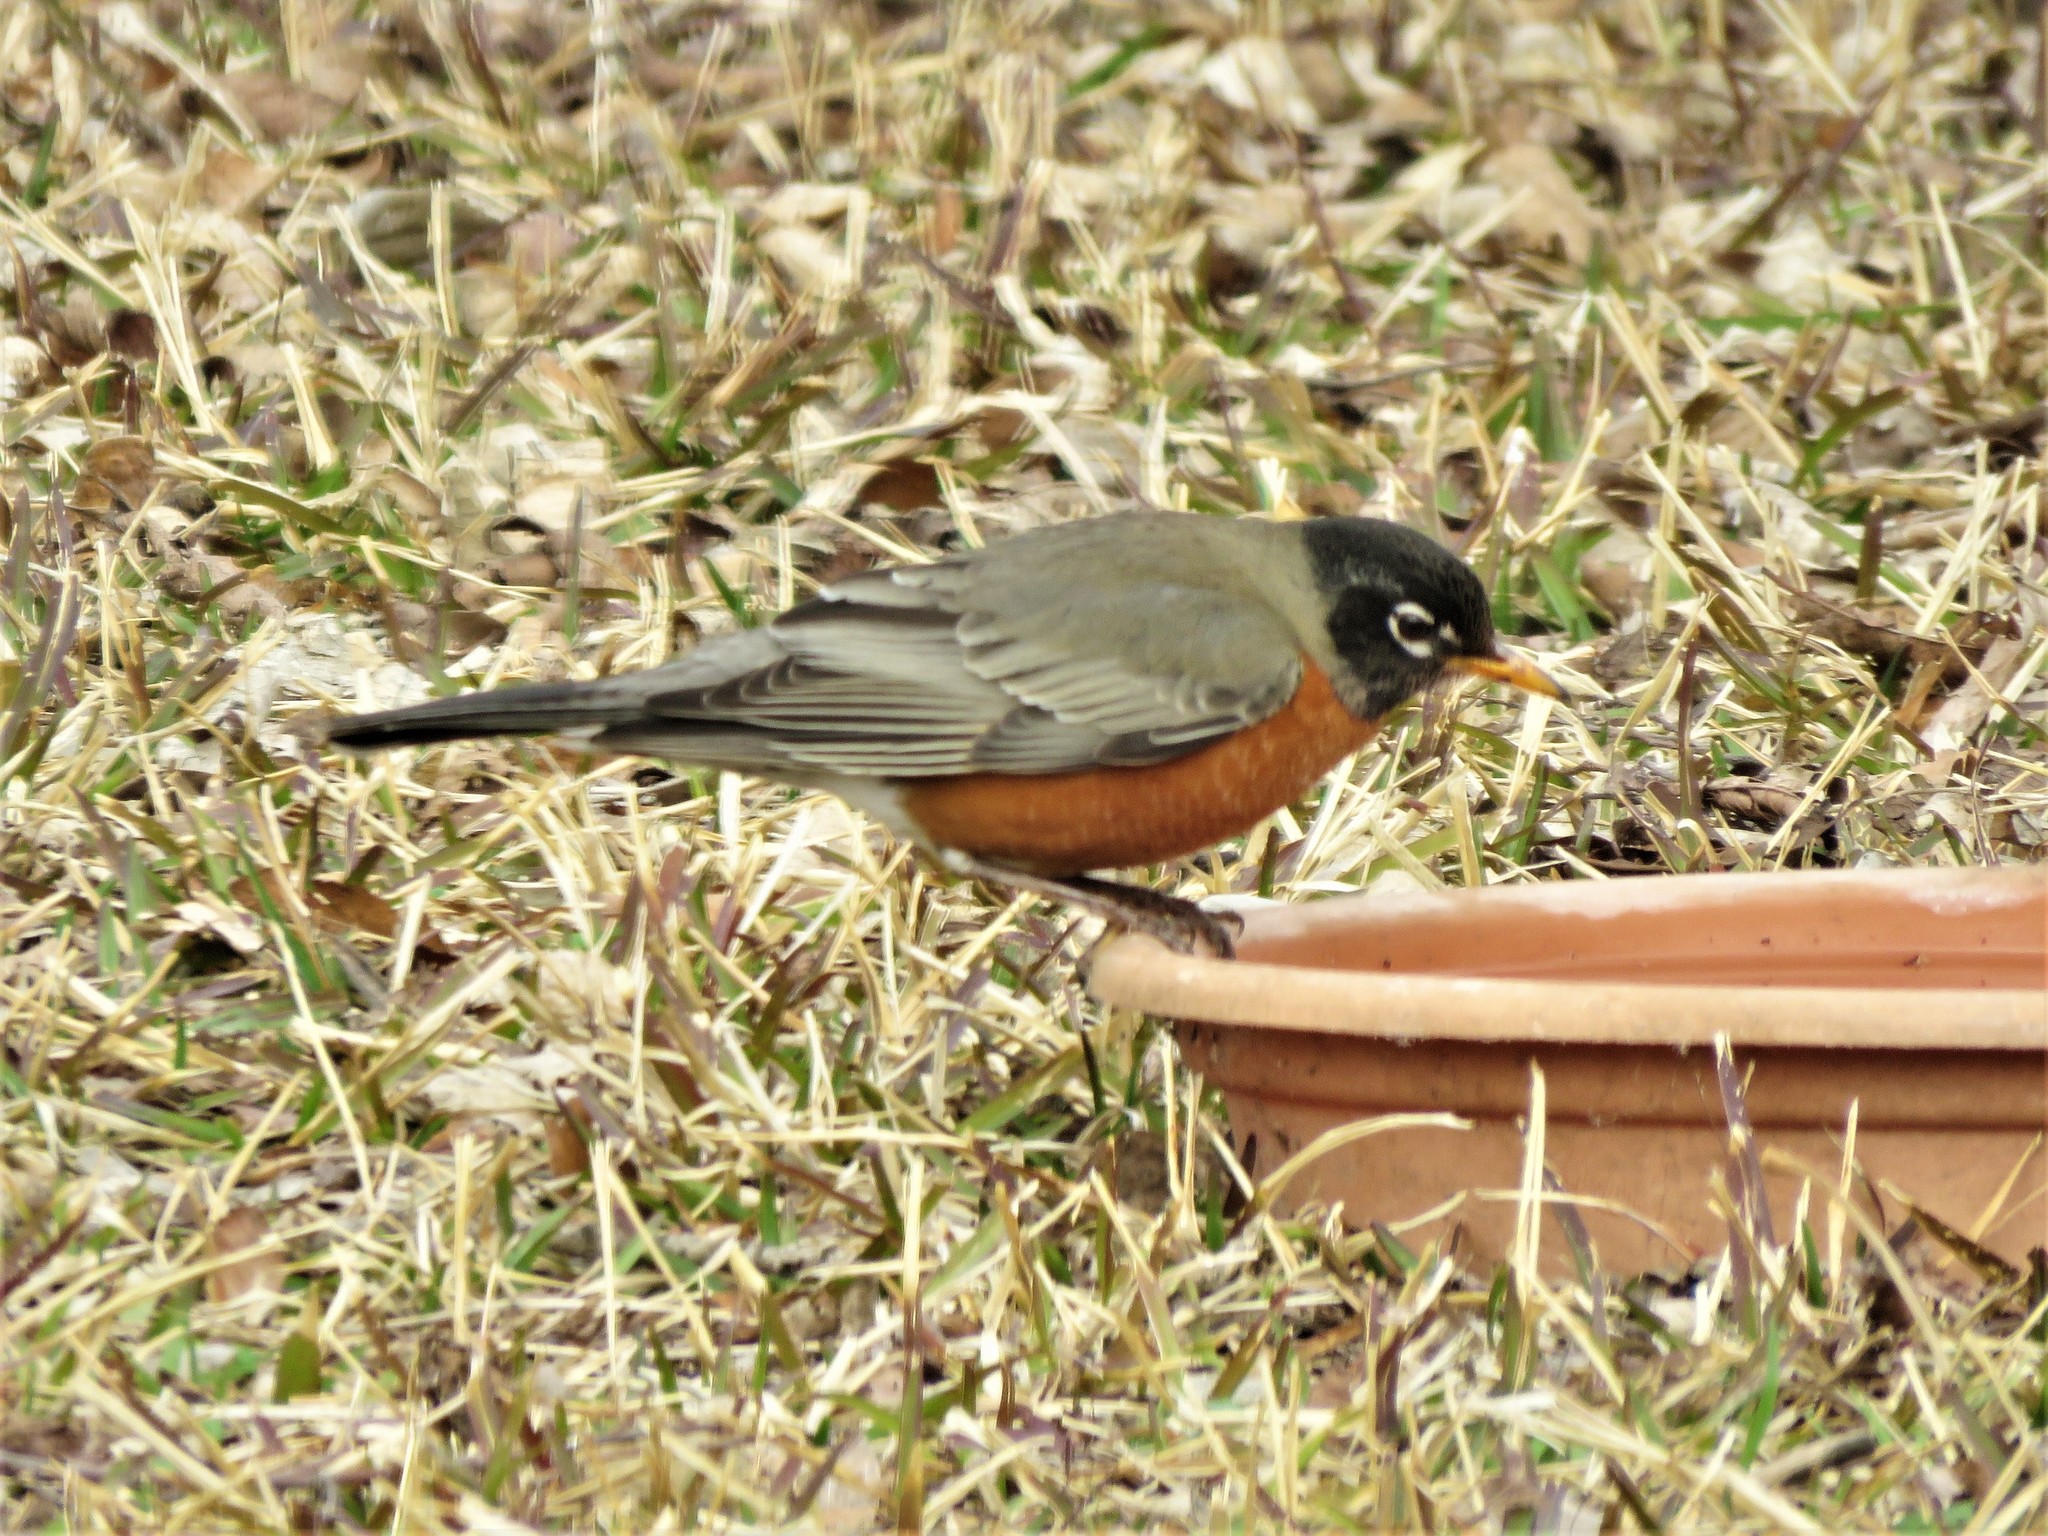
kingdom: Animalia
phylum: Chordata
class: Aves
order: Passeriformes
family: Turdidae
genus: Turdus
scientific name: Turdus migratorius
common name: American robin
